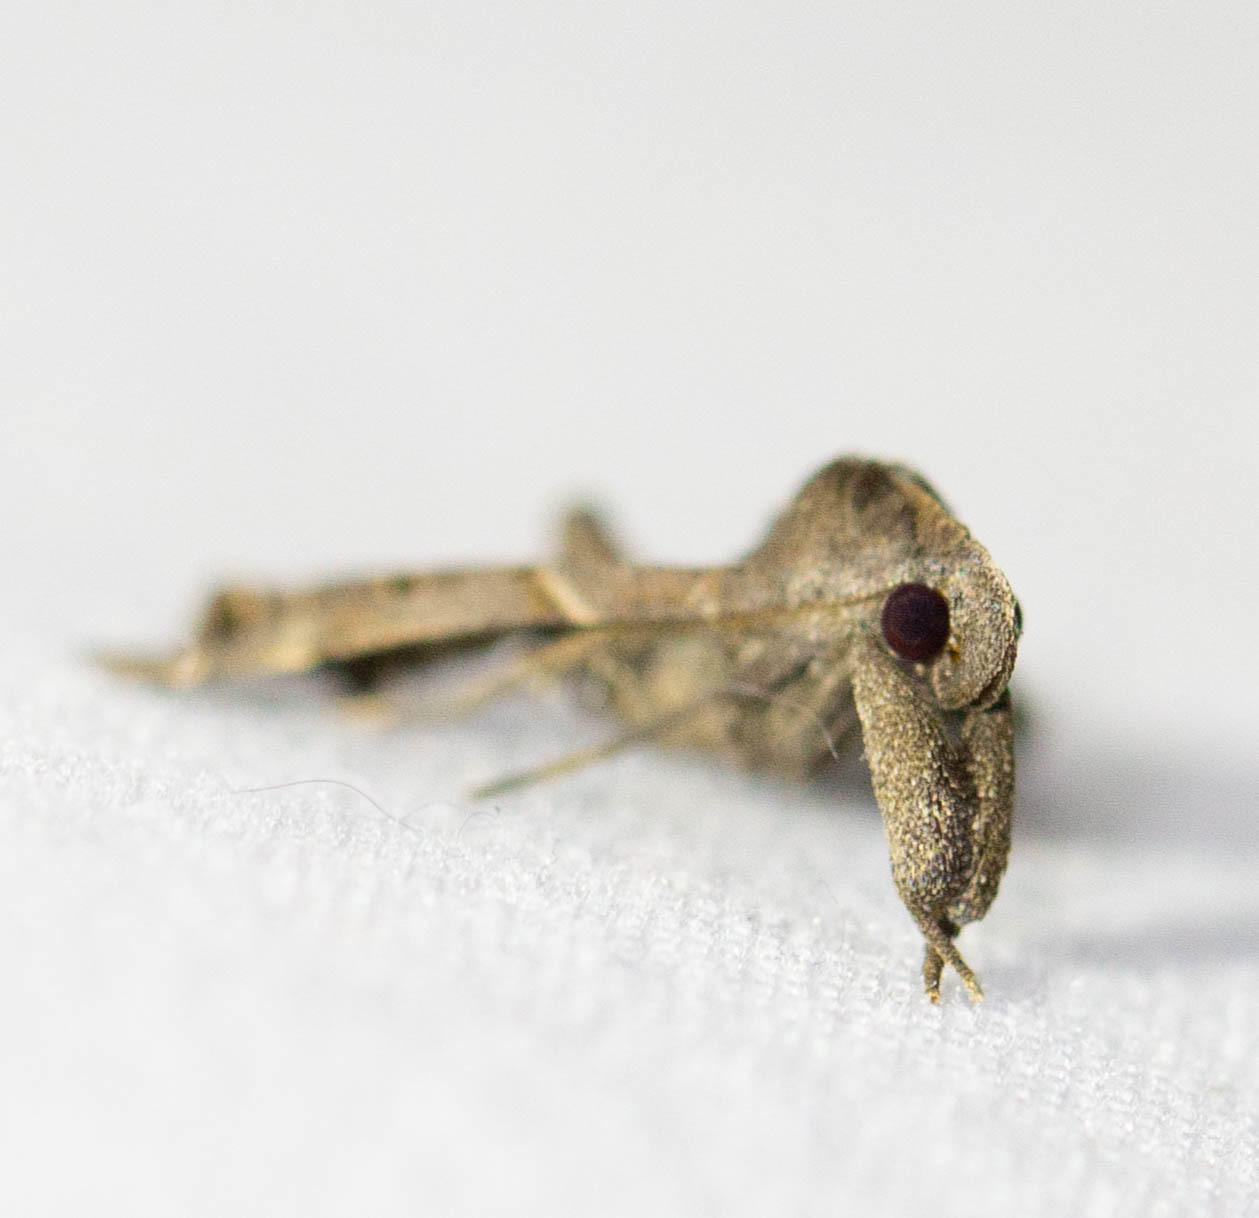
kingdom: Animalia
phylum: Arthropoda
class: Insecta
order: Lepidoptera
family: Erebidae
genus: Palthis
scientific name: Palthis asopialis
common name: Faint-spotted palthis moth
